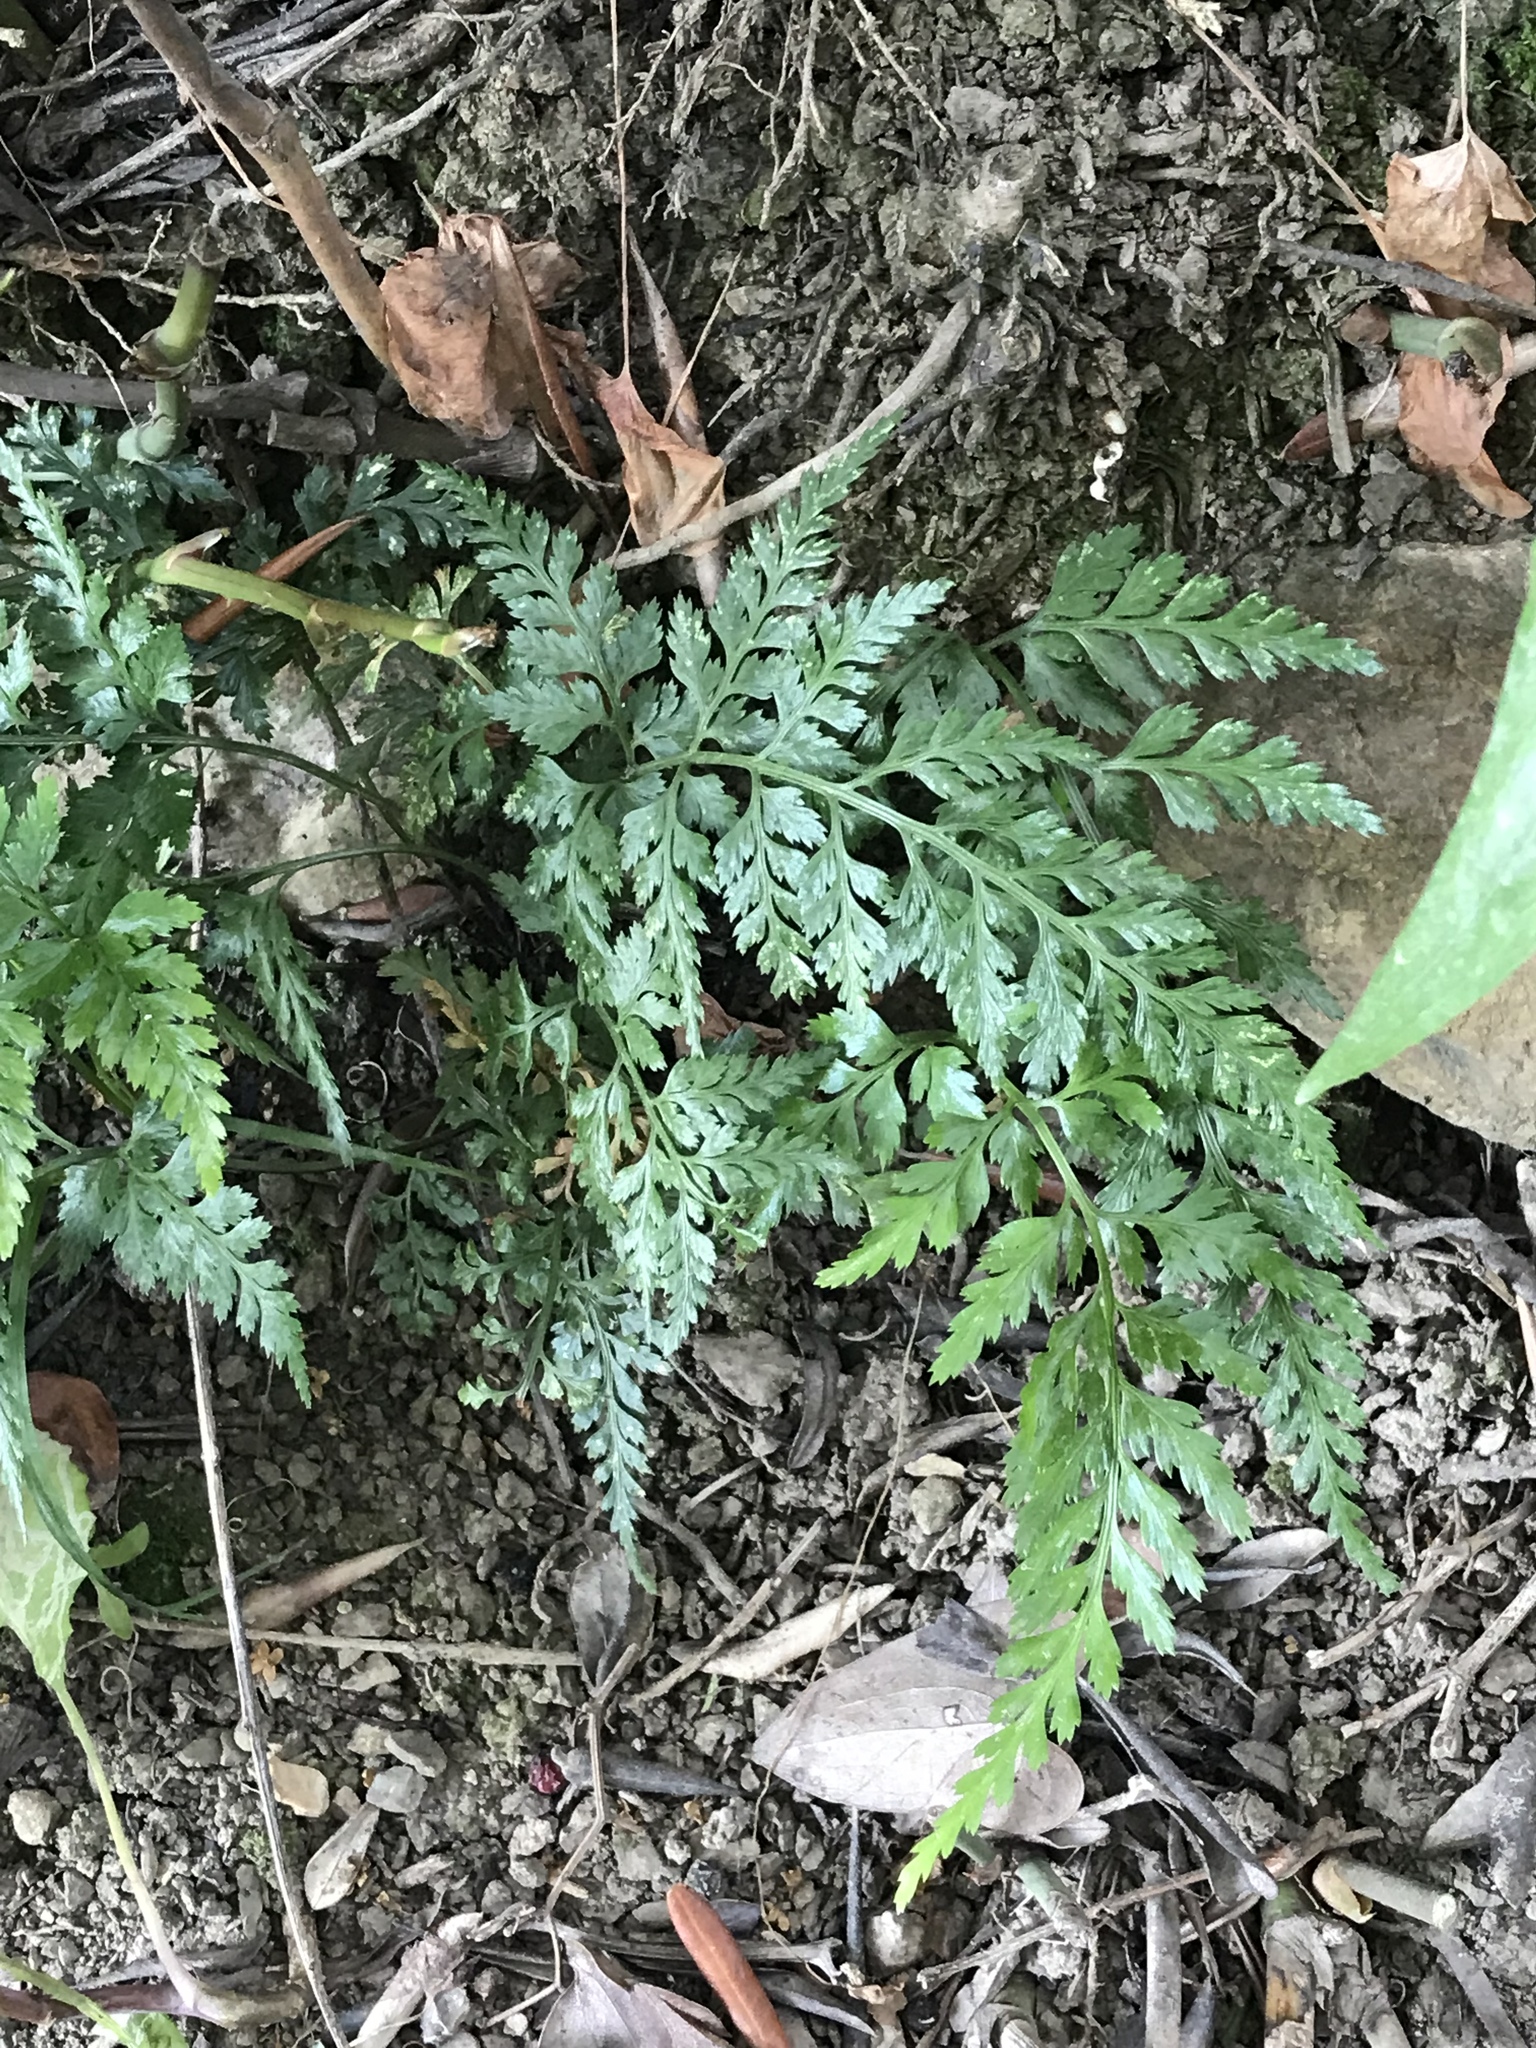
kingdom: Plantae
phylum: Tracheophyta
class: Polypodiopsida
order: Polypodiales
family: Aspleniaceae
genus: Asplenium
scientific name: Asplenium adiantum-nigrum
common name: Black spleenwort
